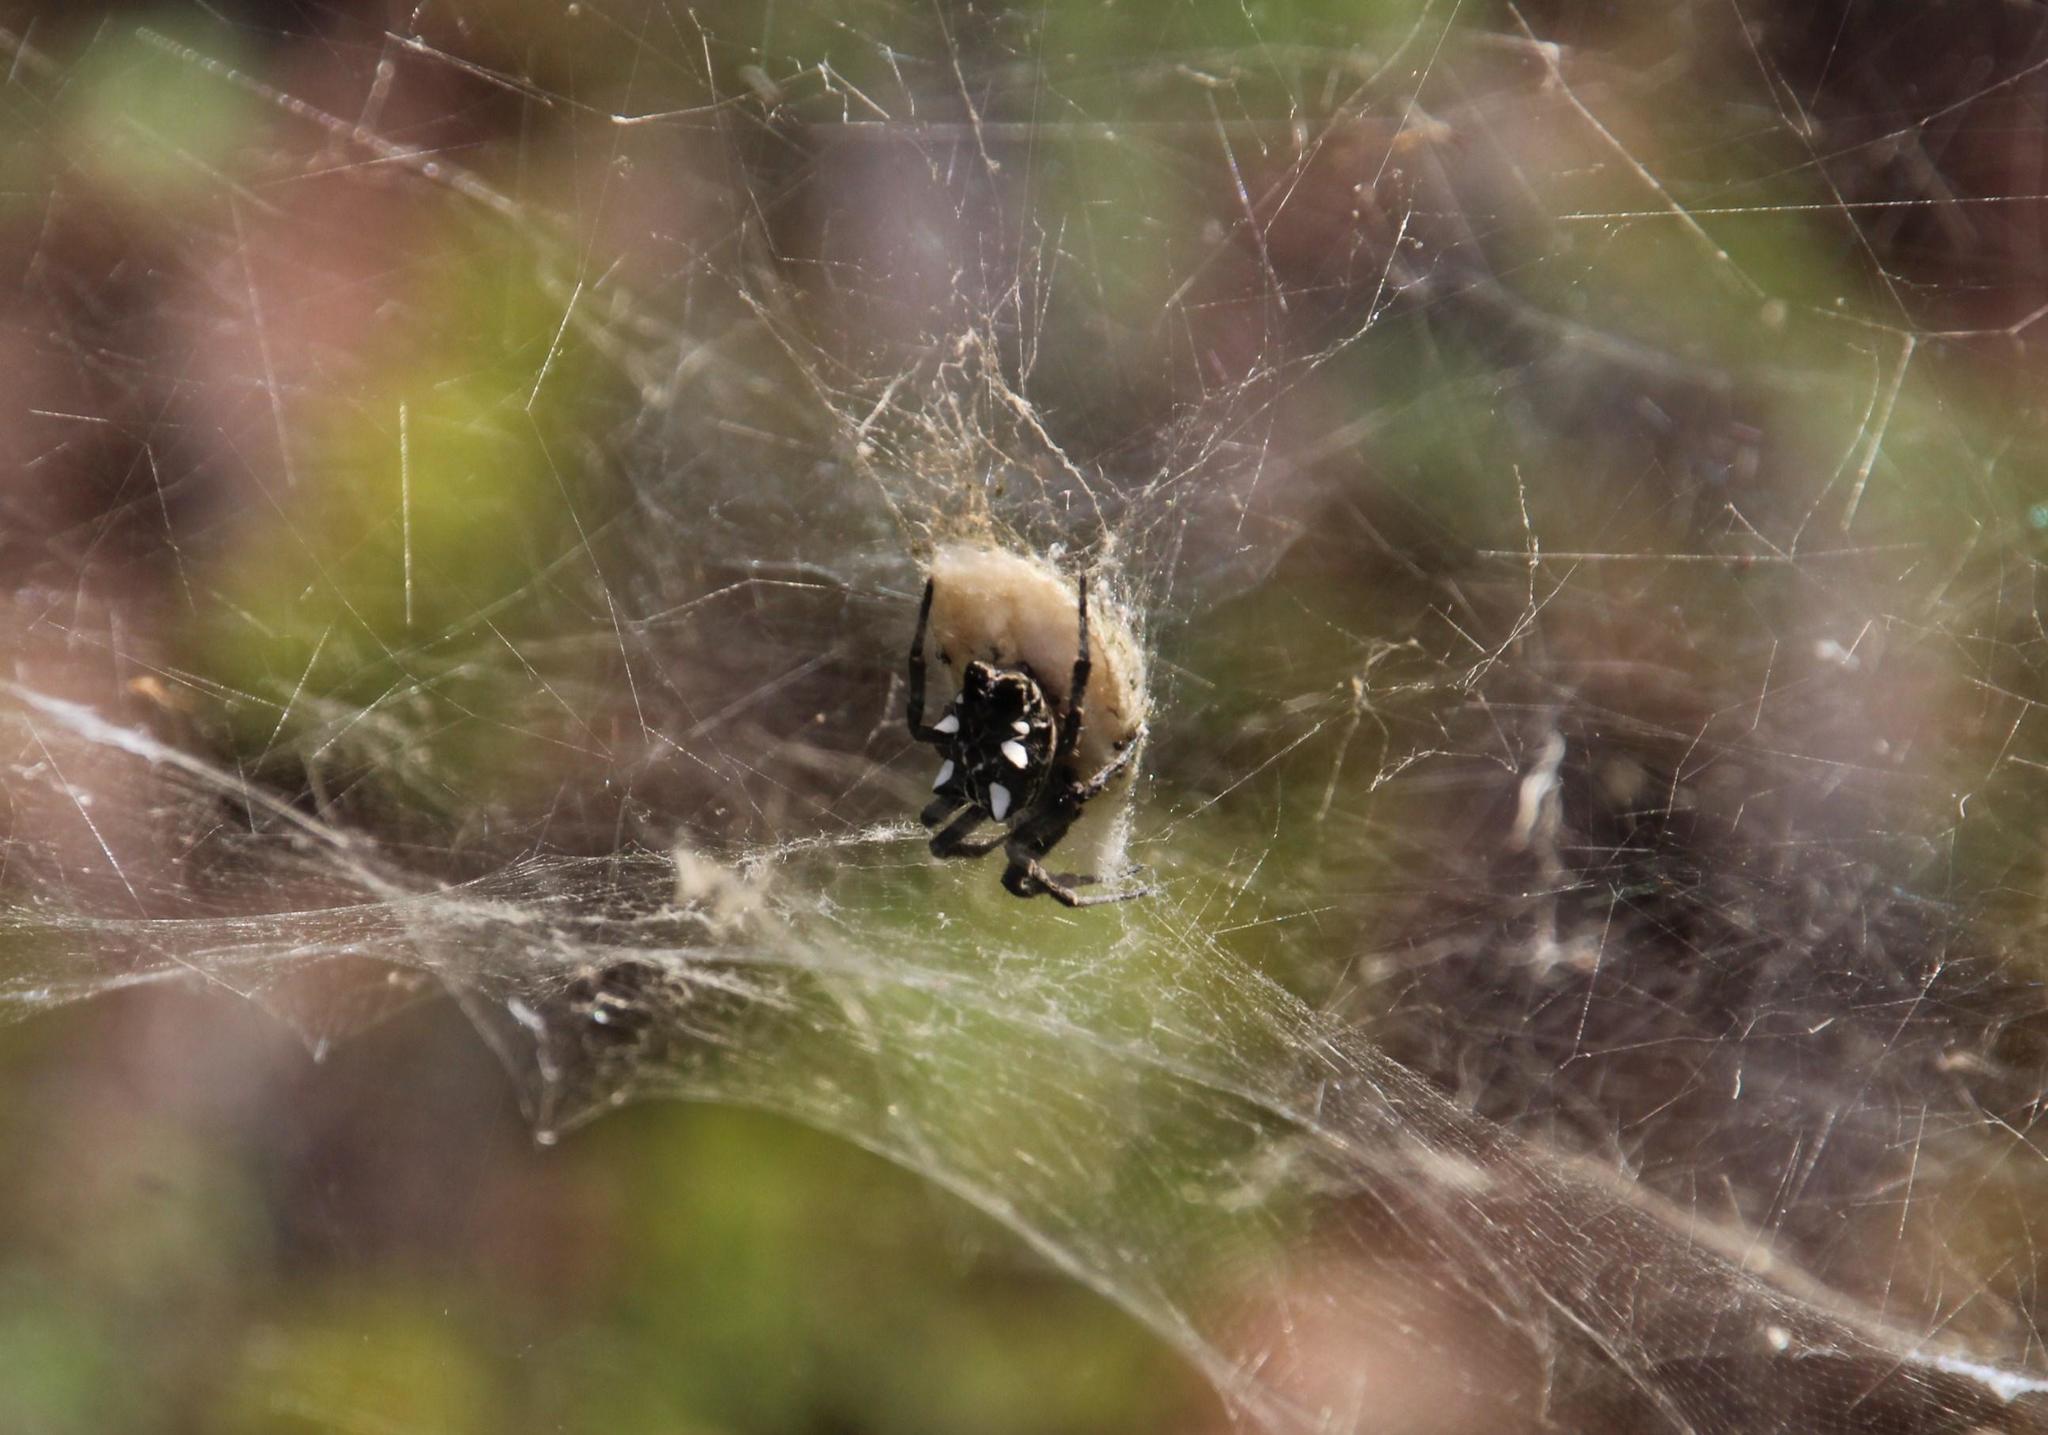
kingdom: Animalia
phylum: Arthropoda
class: Arachnida
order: Araneae
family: Araneidae
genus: Cyrtophora
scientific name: Cyrtophora citricola
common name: Orb weavers
